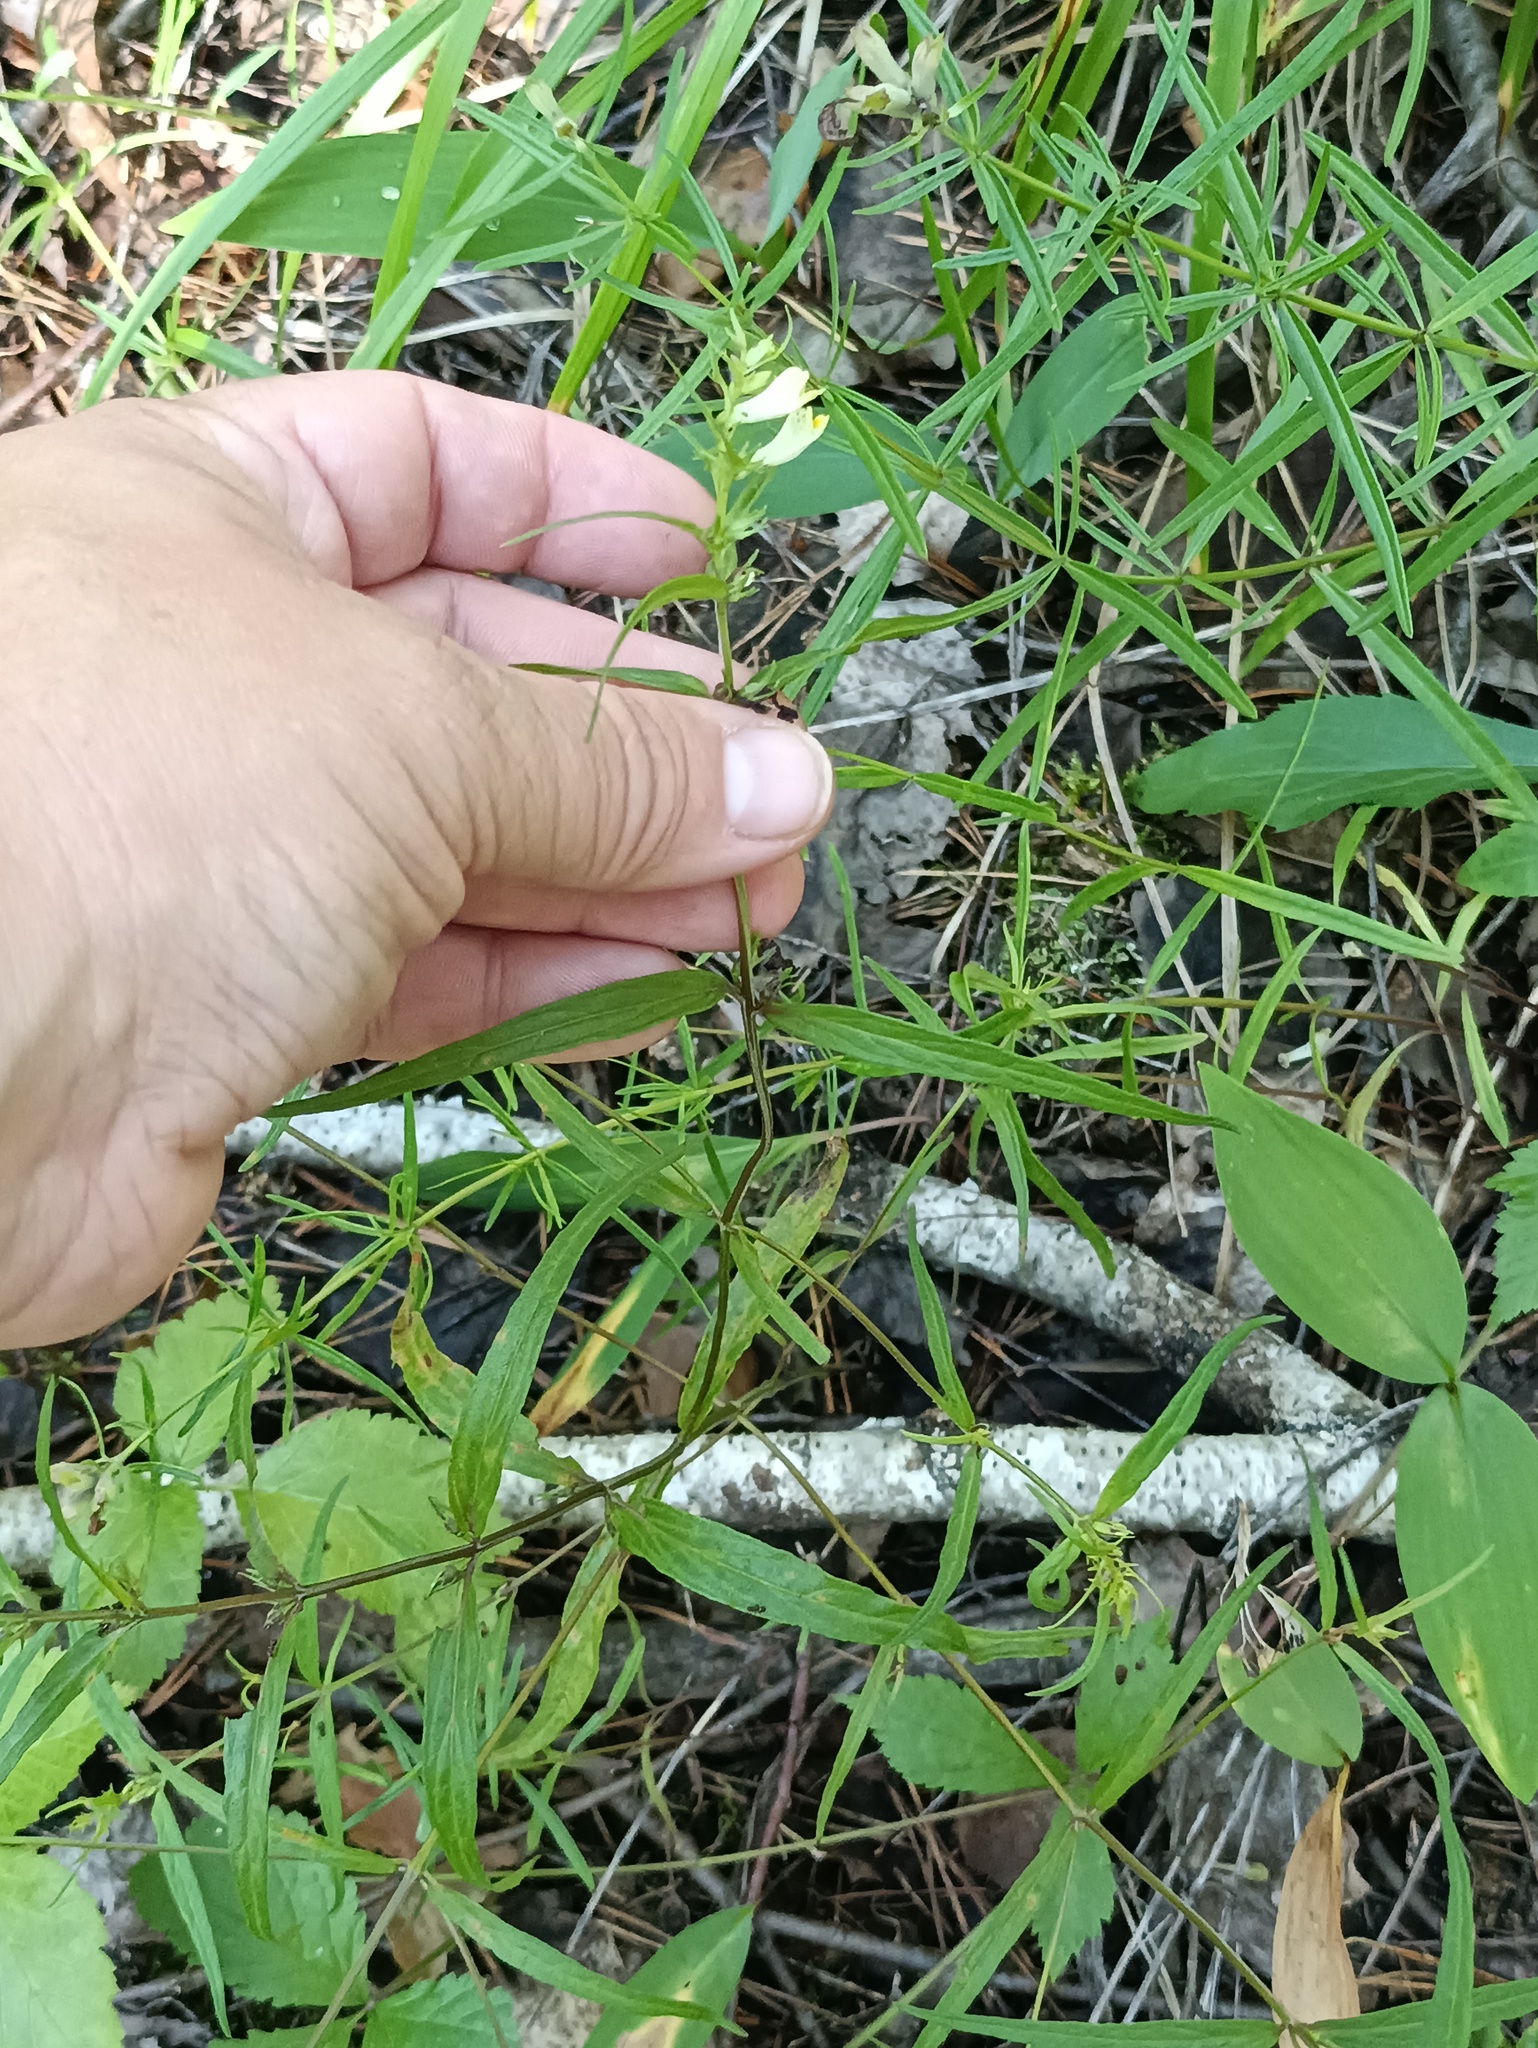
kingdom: Plantae
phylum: Tracheophyta
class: Magnoliopsida
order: Lamiales
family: Orobanchaceae
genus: Melampyrum
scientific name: Melampyrum pratense
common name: Common cow-wheat
